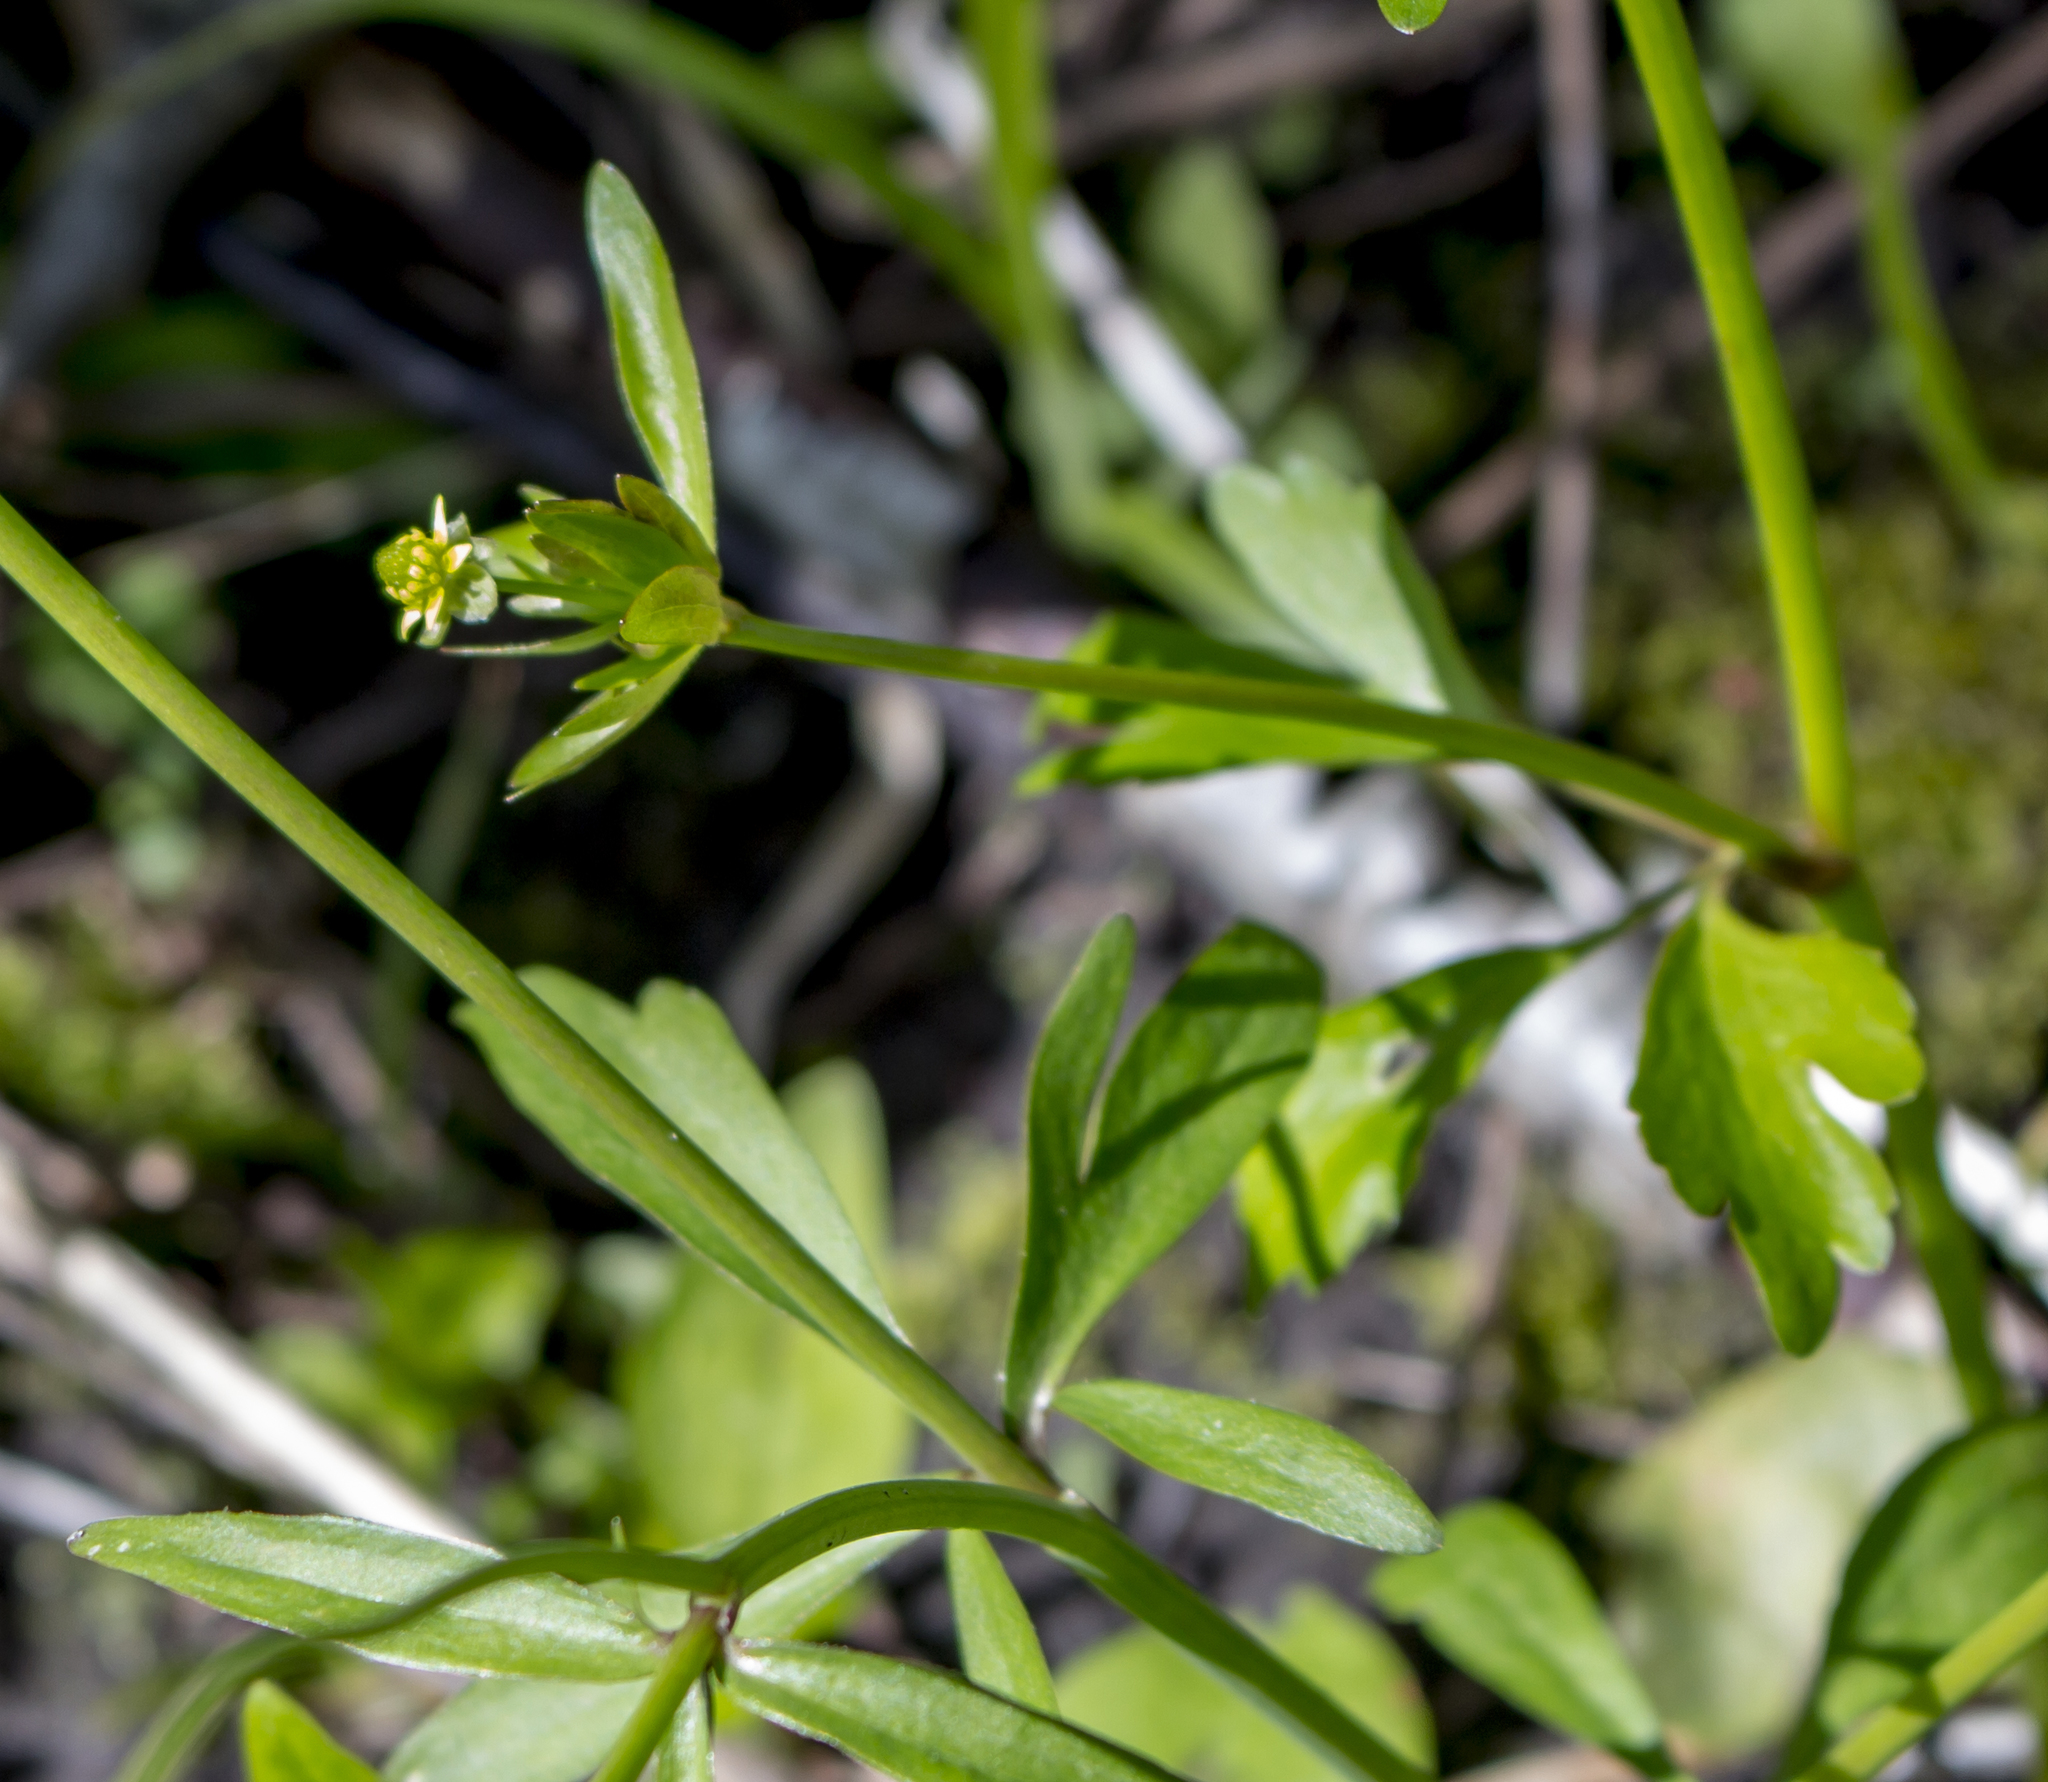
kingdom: Plantae
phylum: Tracheophyta
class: Magnoliopsida
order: Ranunculales
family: Ranunculaceae
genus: Ranunculus
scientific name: Ranunculus abortivus
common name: Early wood buttercup
